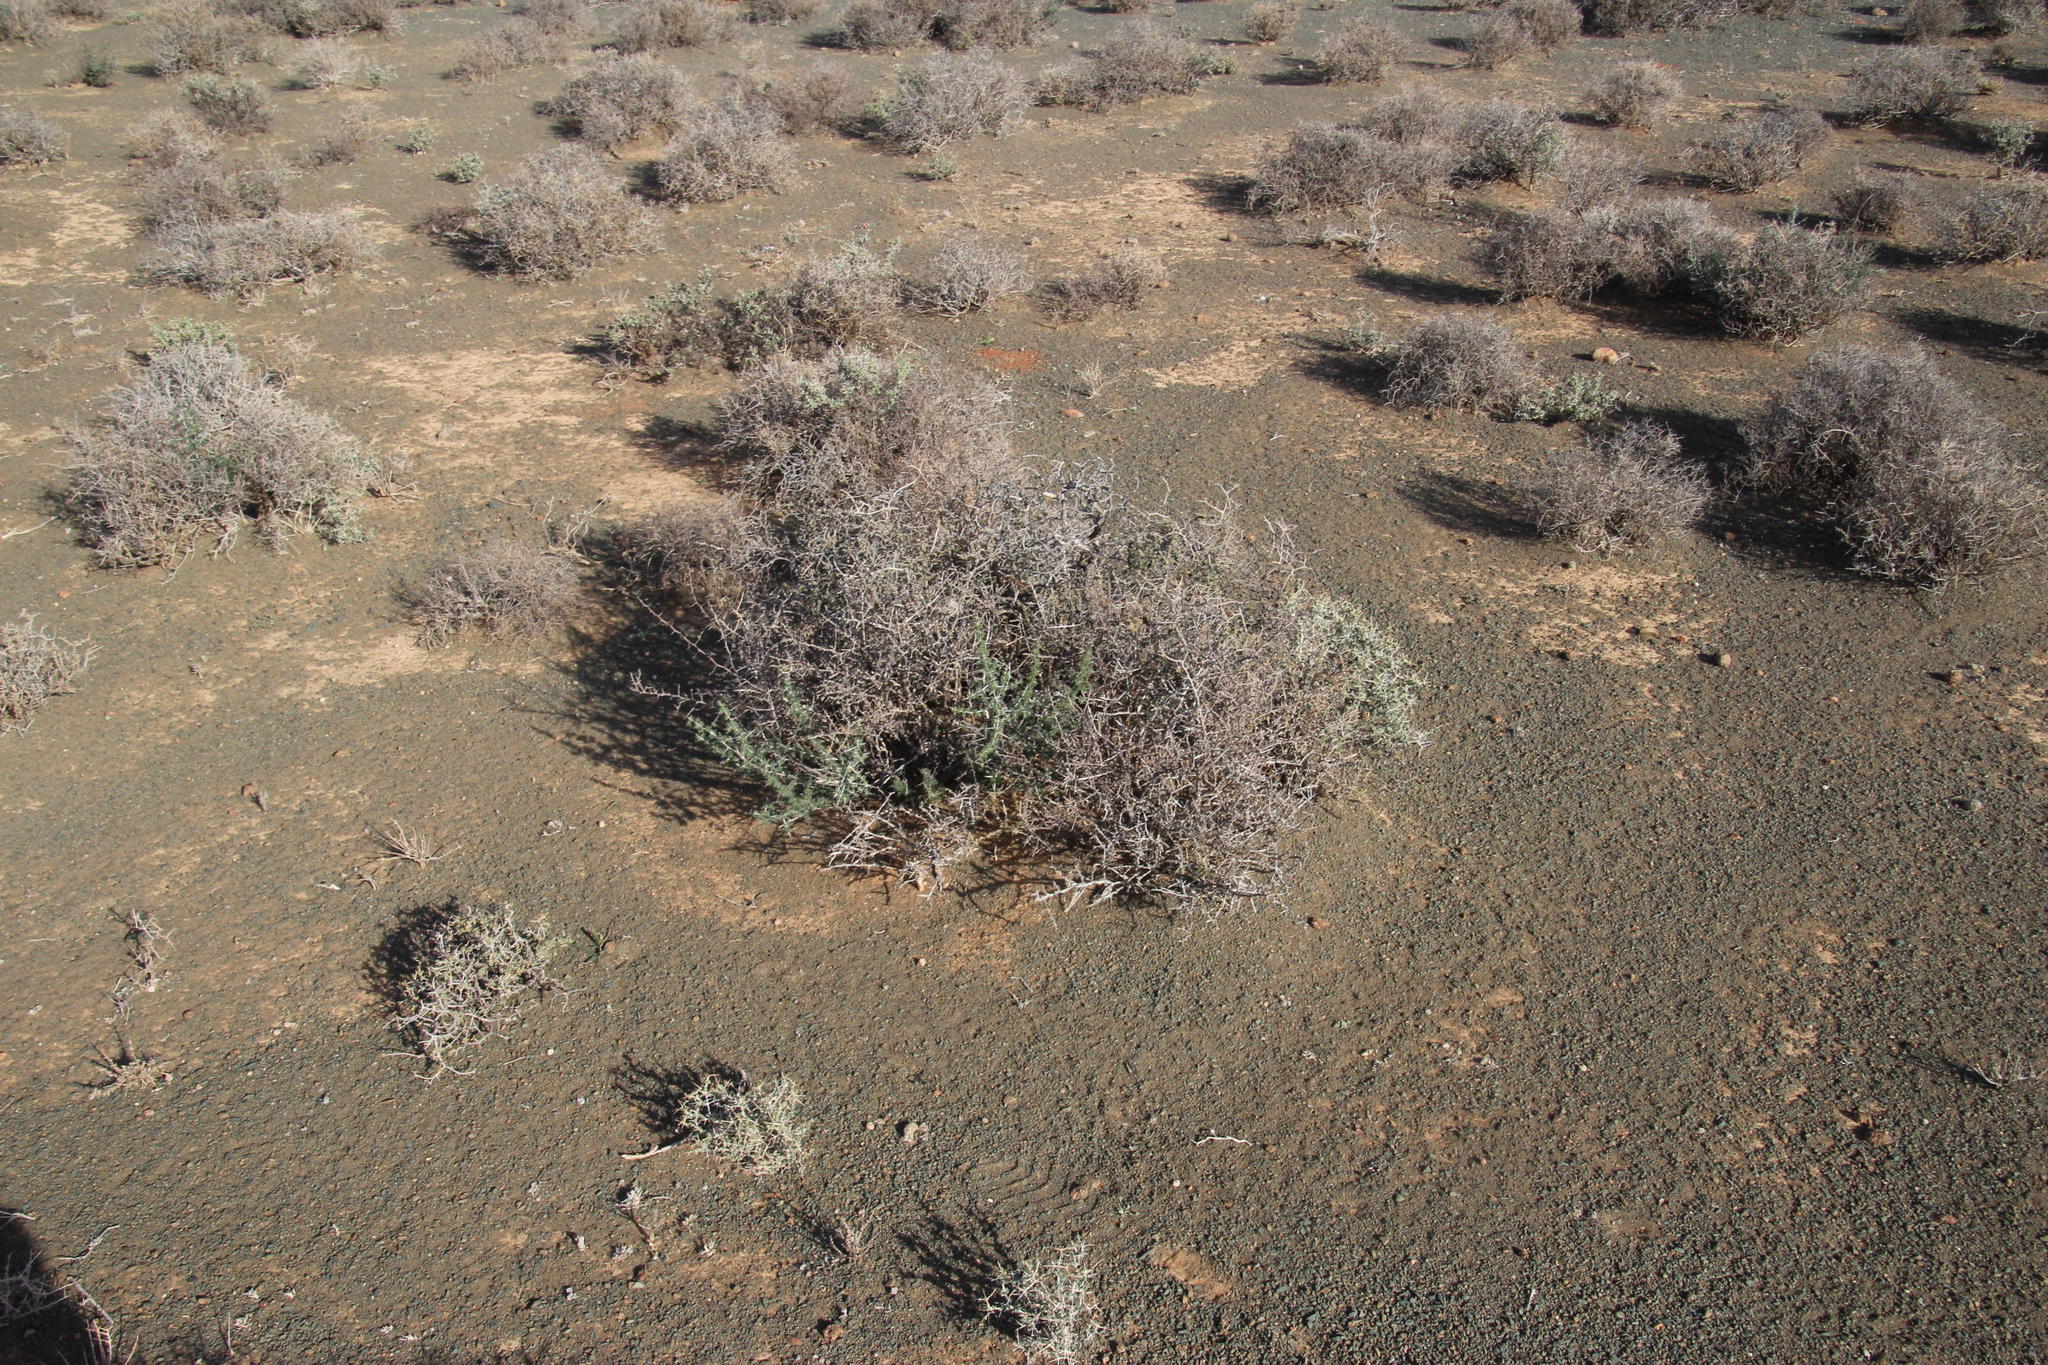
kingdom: Plantae
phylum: Tracheophyta
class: Liliopsida
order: Asparagales
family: Asparagaceae
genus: Asparagus
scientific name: Asparagus suaveolens
